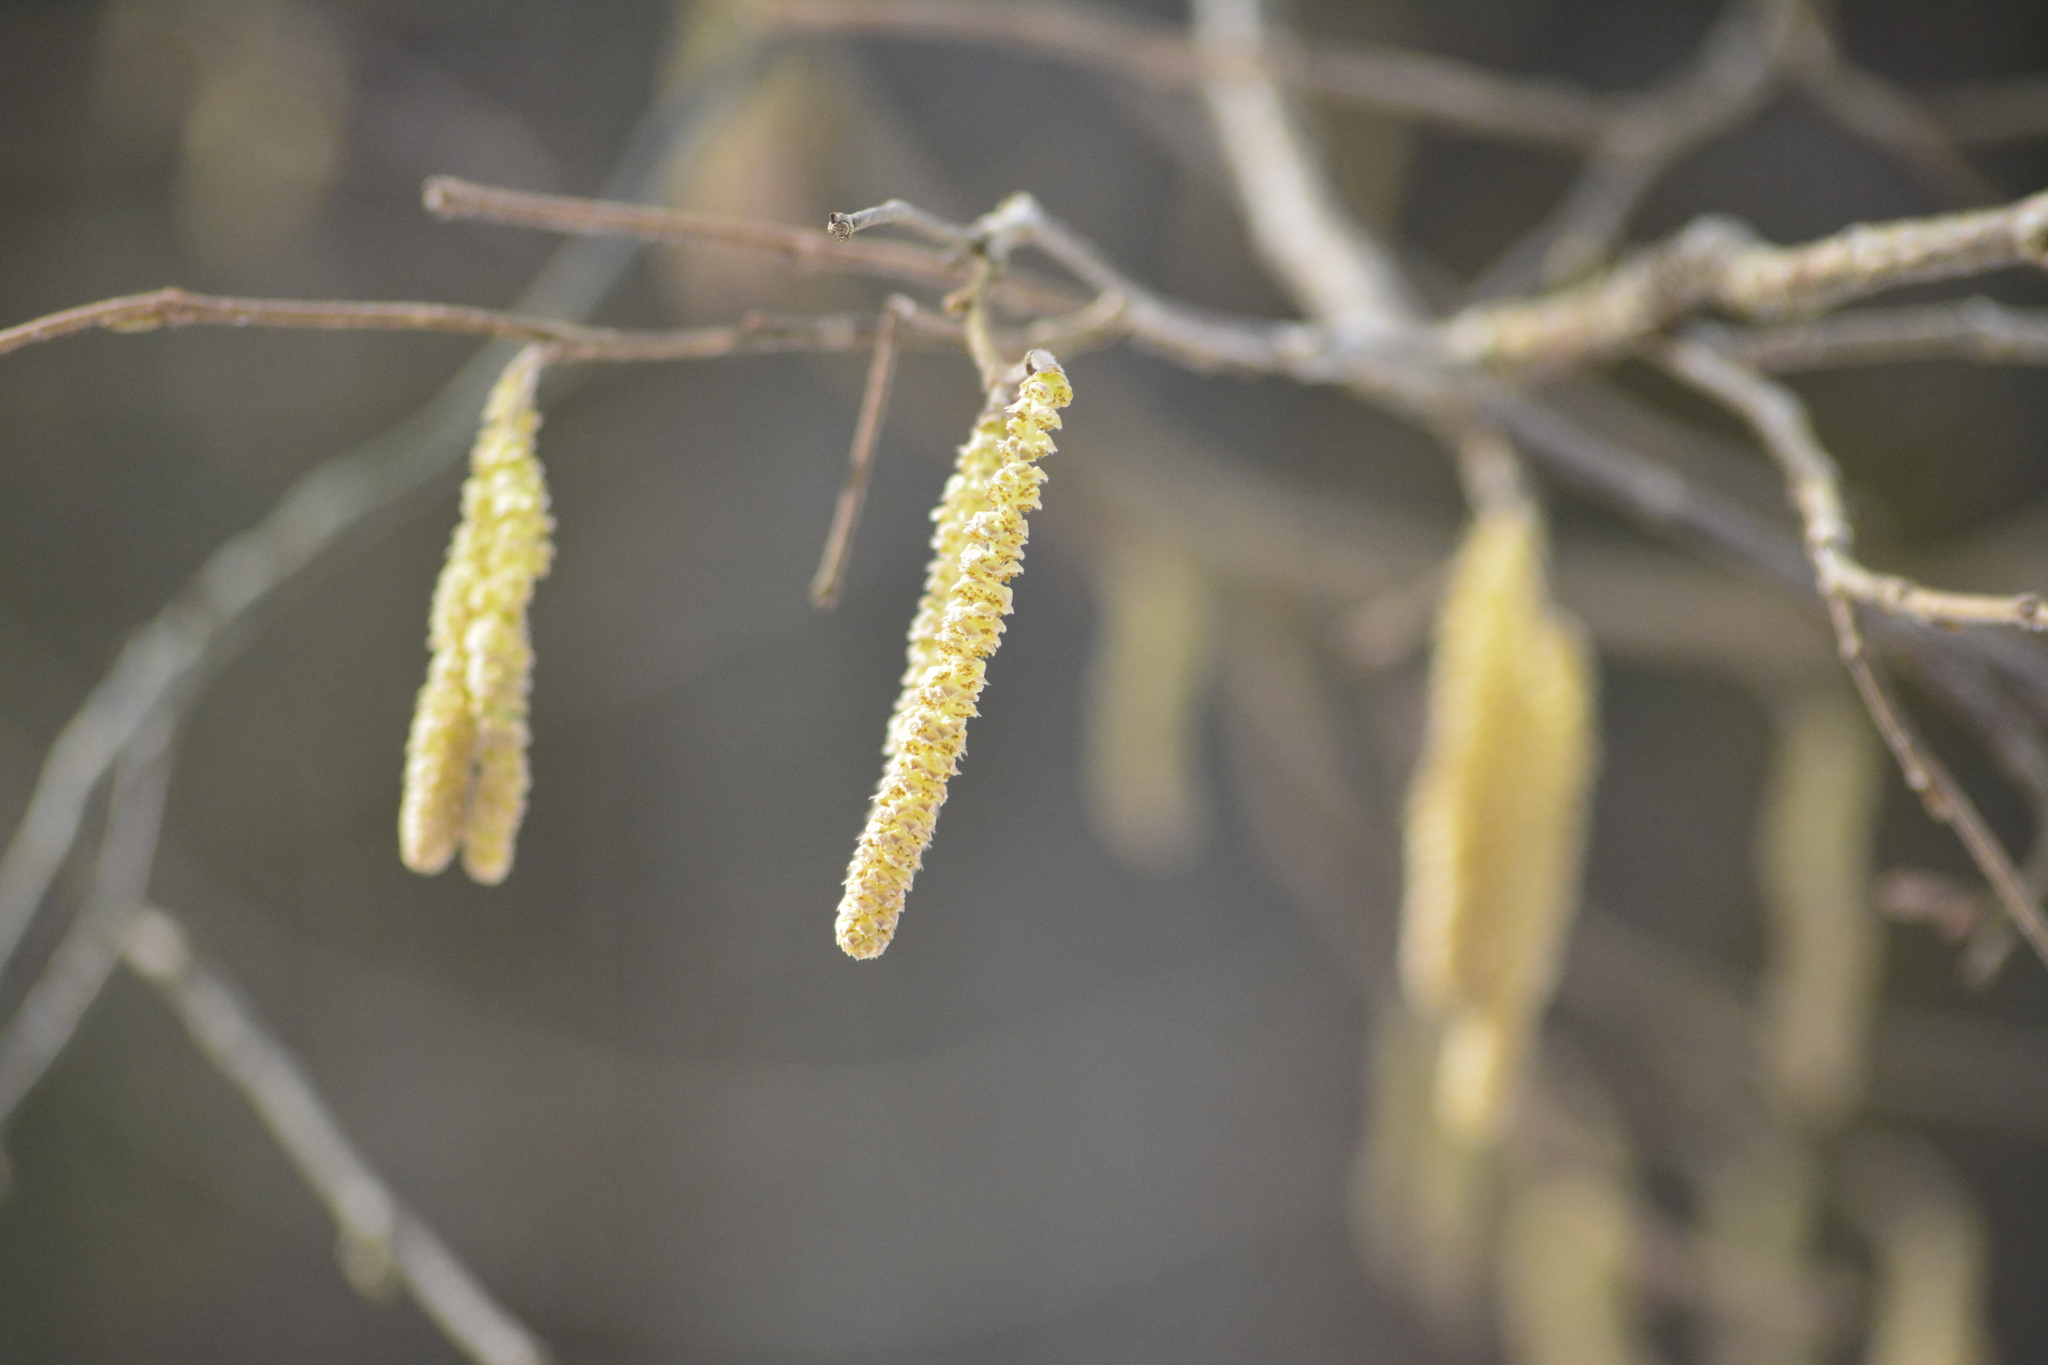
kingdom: Plantae
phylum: Tracheophyta
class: Magnoliopsida
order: Fagales
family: Betulaceae
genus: Corylus
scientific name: Corylus avellana
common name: European hazel
